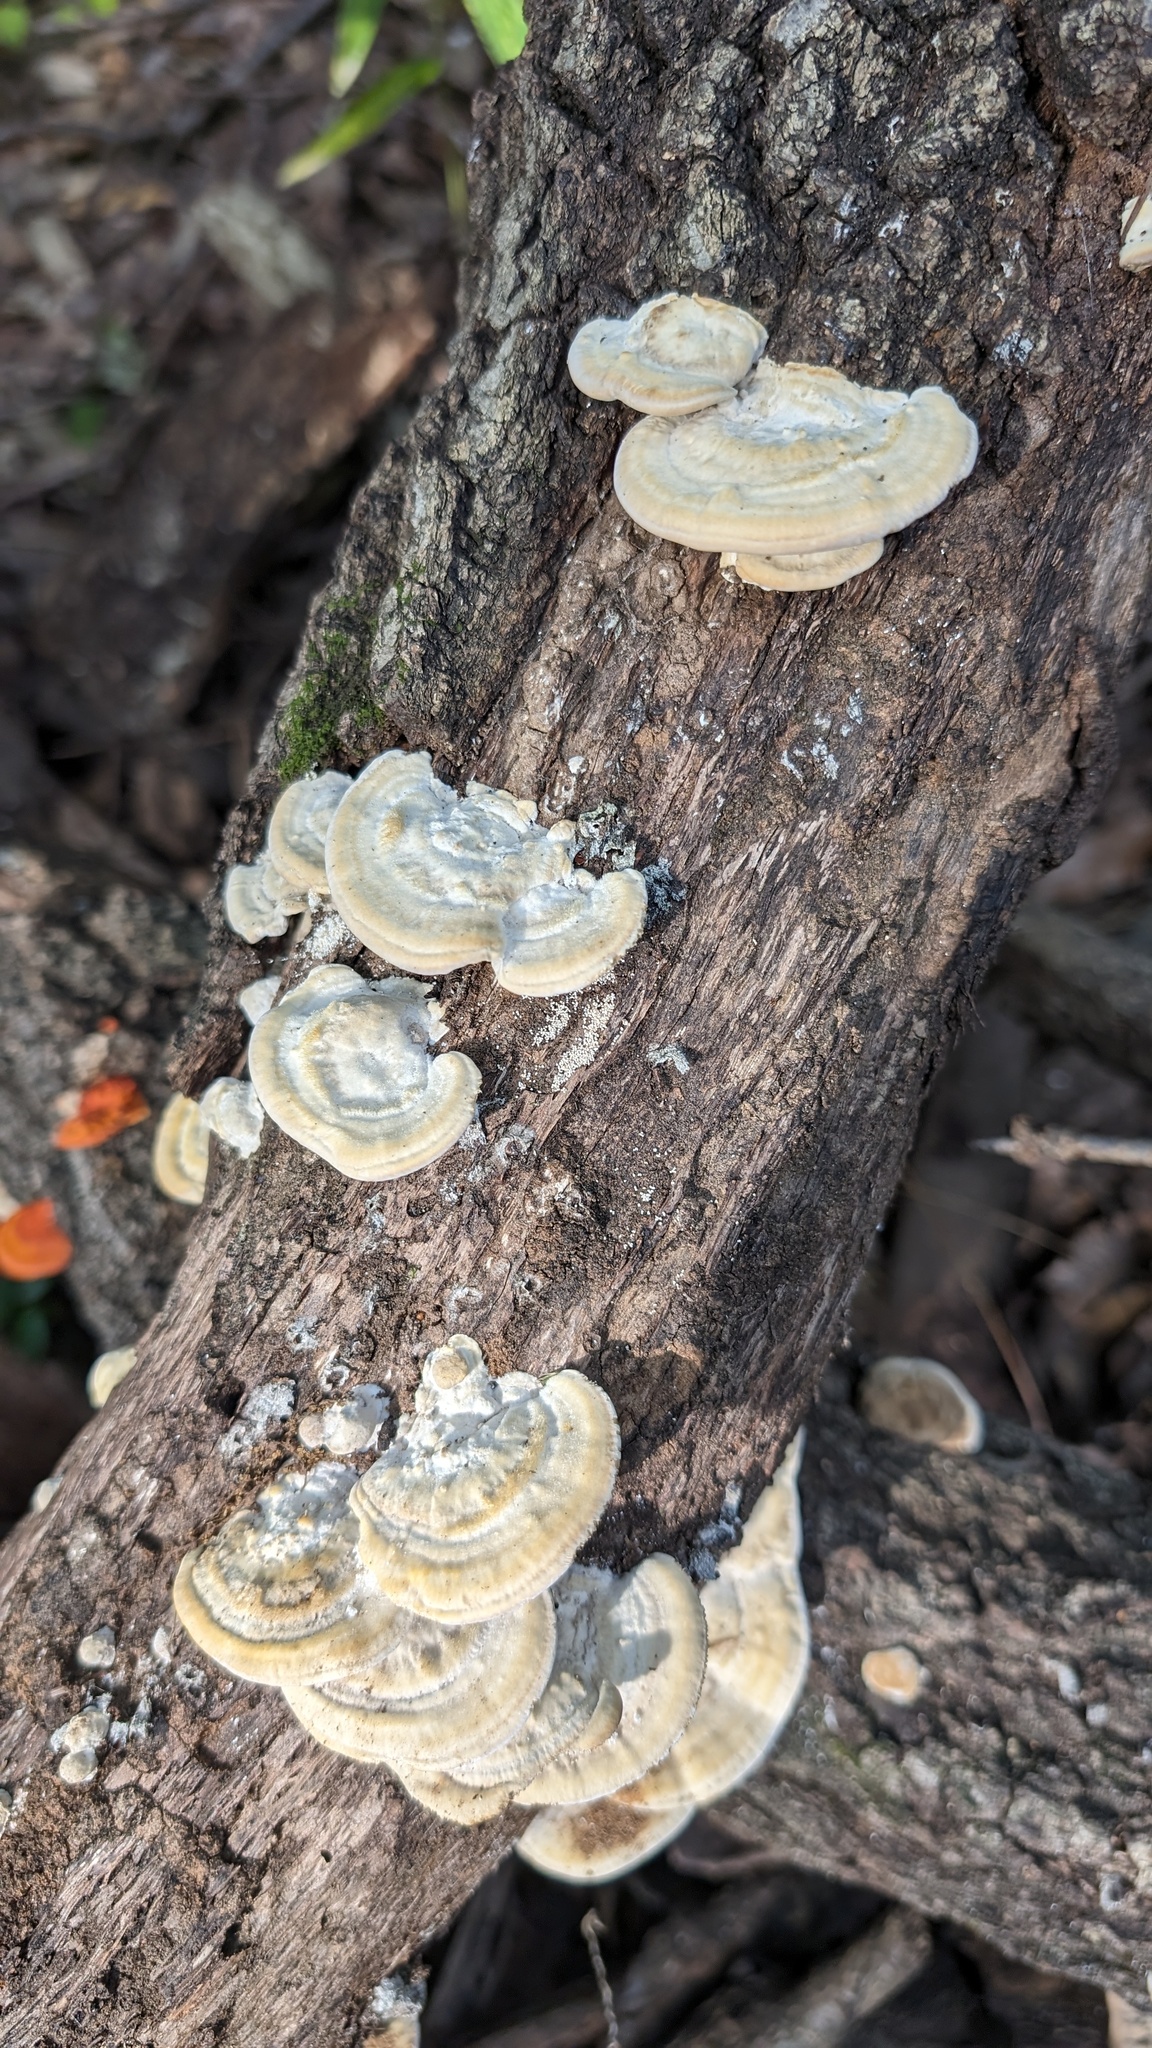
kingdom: Fungi
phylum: Basidiomycota
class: Agaricomycetes
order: Polyporales
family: Polyporaceae
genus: Trametes
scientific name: Trametes orientalis
